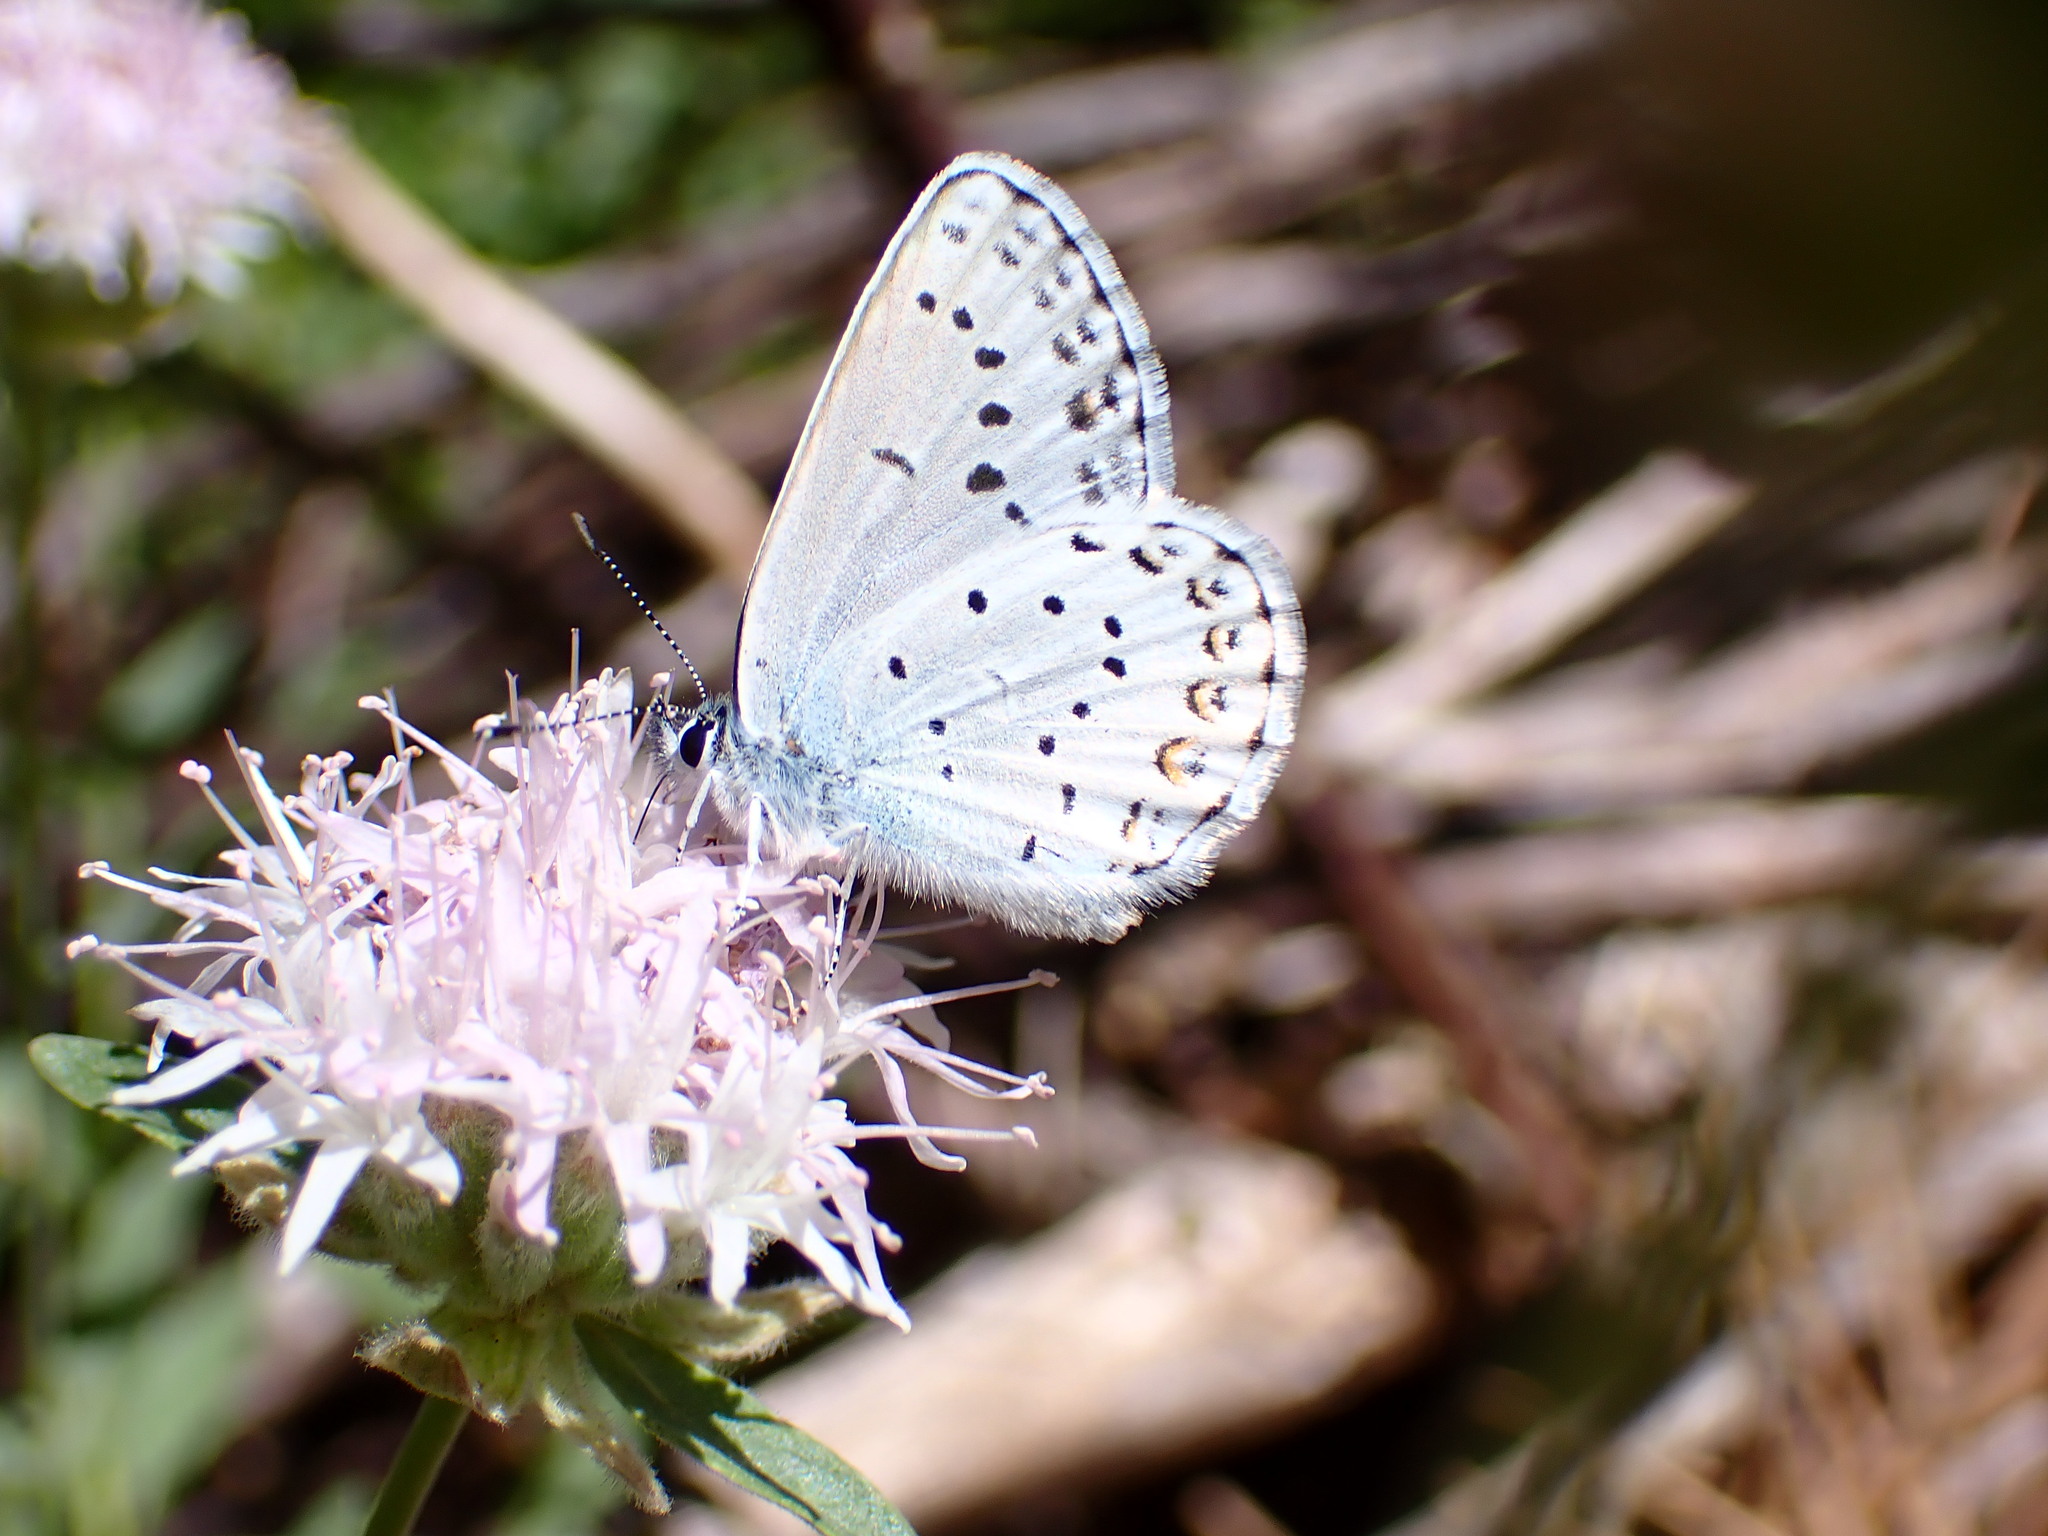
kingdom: Animalia
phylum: Arthropoda
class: Insecta
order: Lepidoptera
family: Lycaenidae
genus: Lycaeides
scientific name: Lycaeides anna
